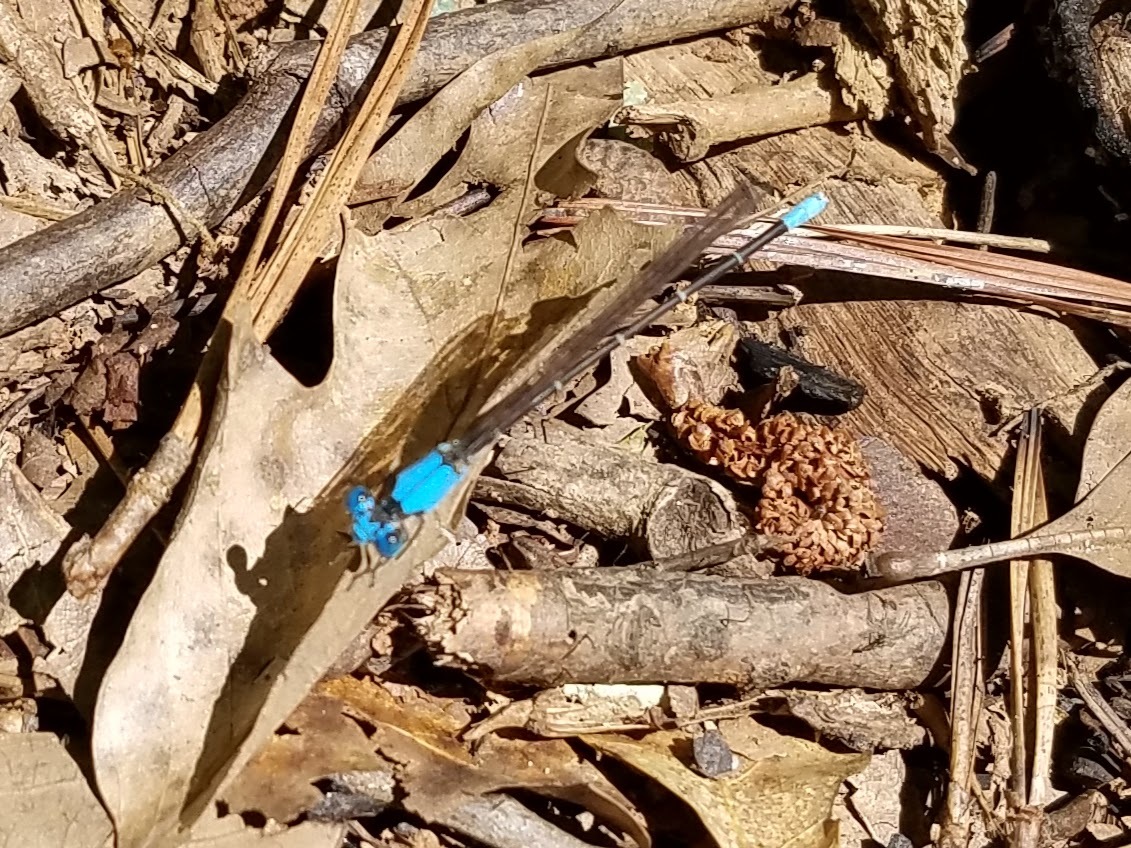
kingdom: Animalia
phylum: Arthropoda
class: Insecta
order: Odonata
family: Coenagrionidae
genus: Argia
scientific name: Argia apicalis
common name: Blue-fronted dancer
